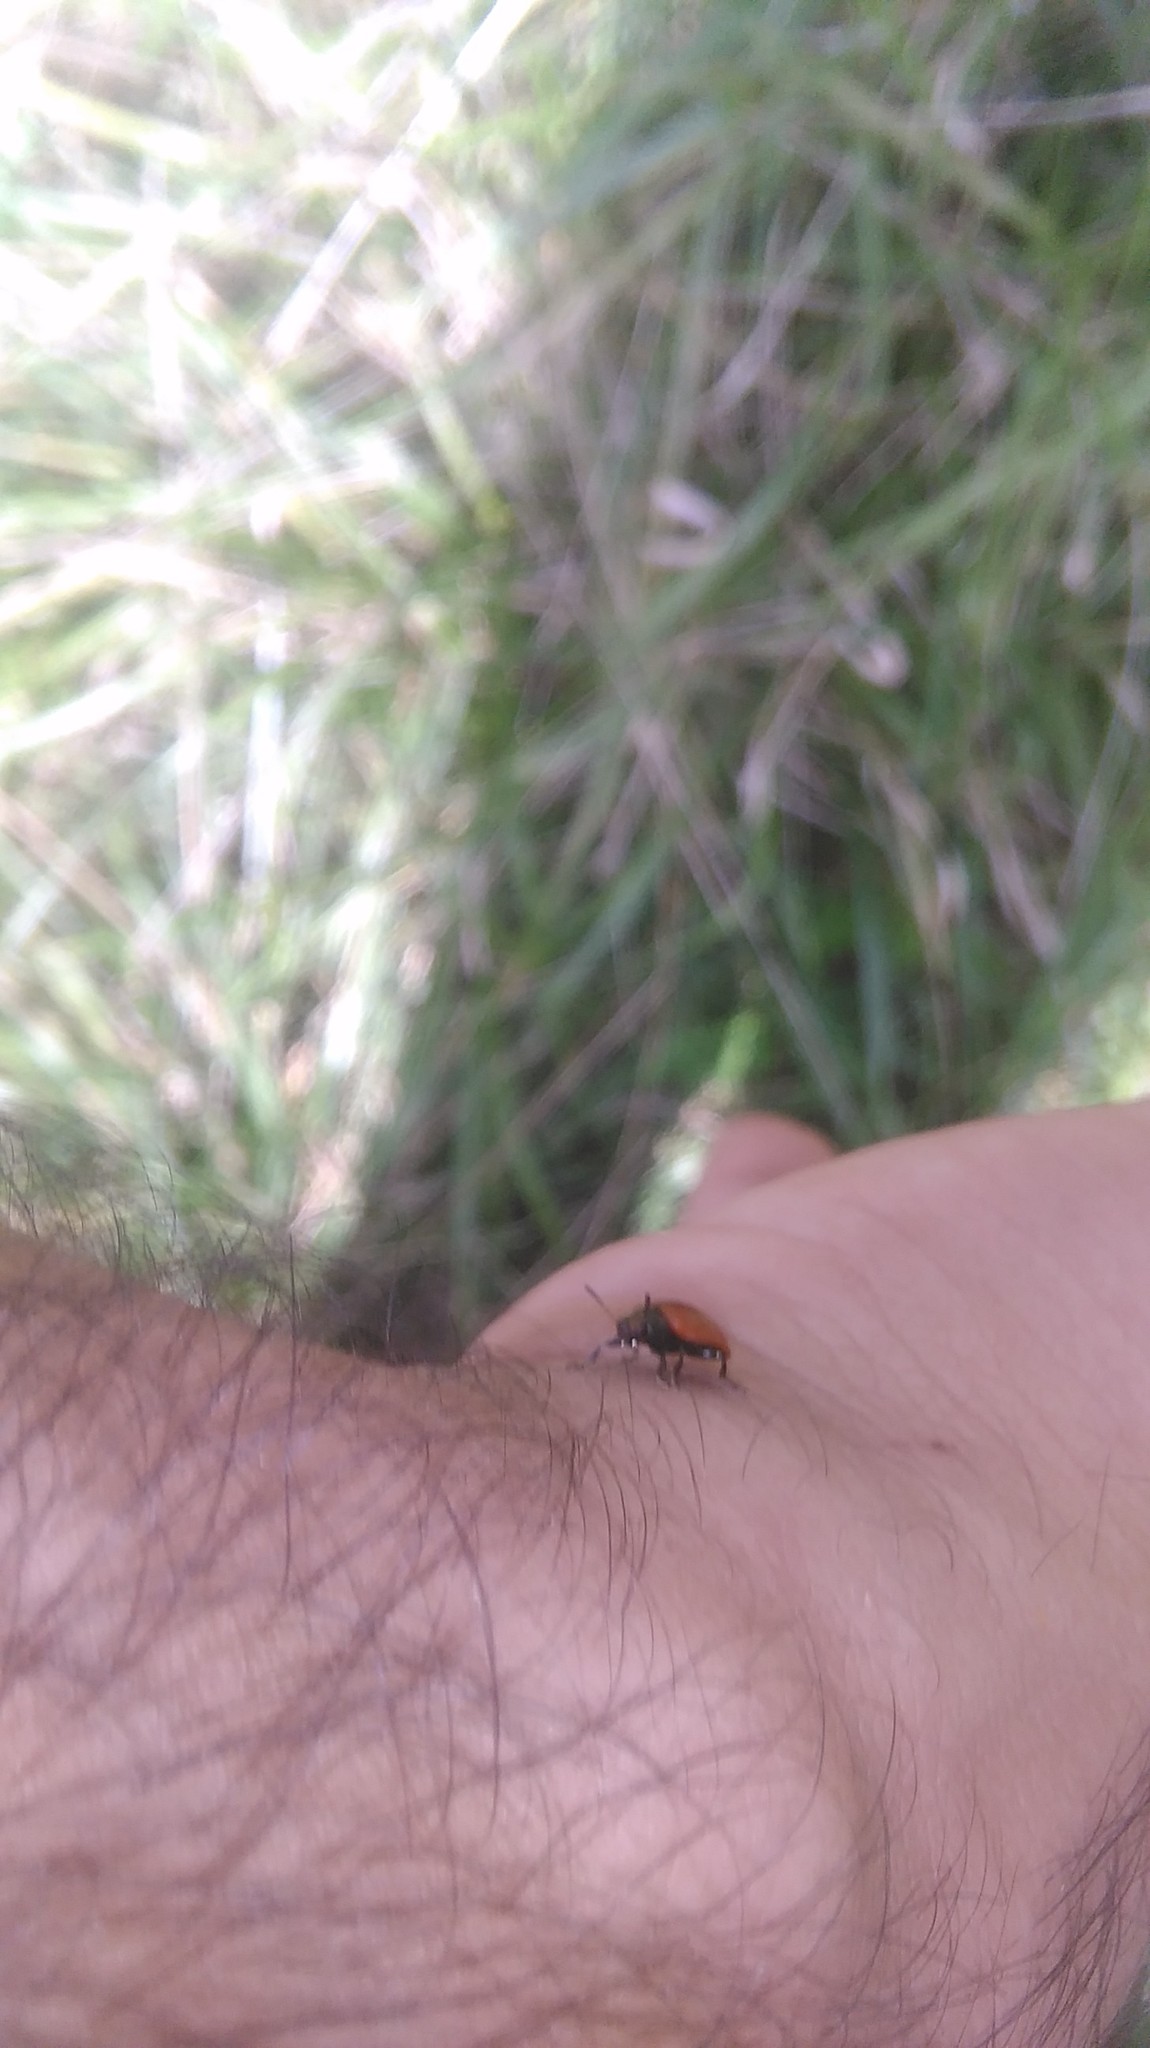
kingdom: Animalia
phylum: Arthropoda
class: Insecta
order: Coleoptera
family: Chrysomelidae
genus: Plagiodera
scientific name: Plagiodera
